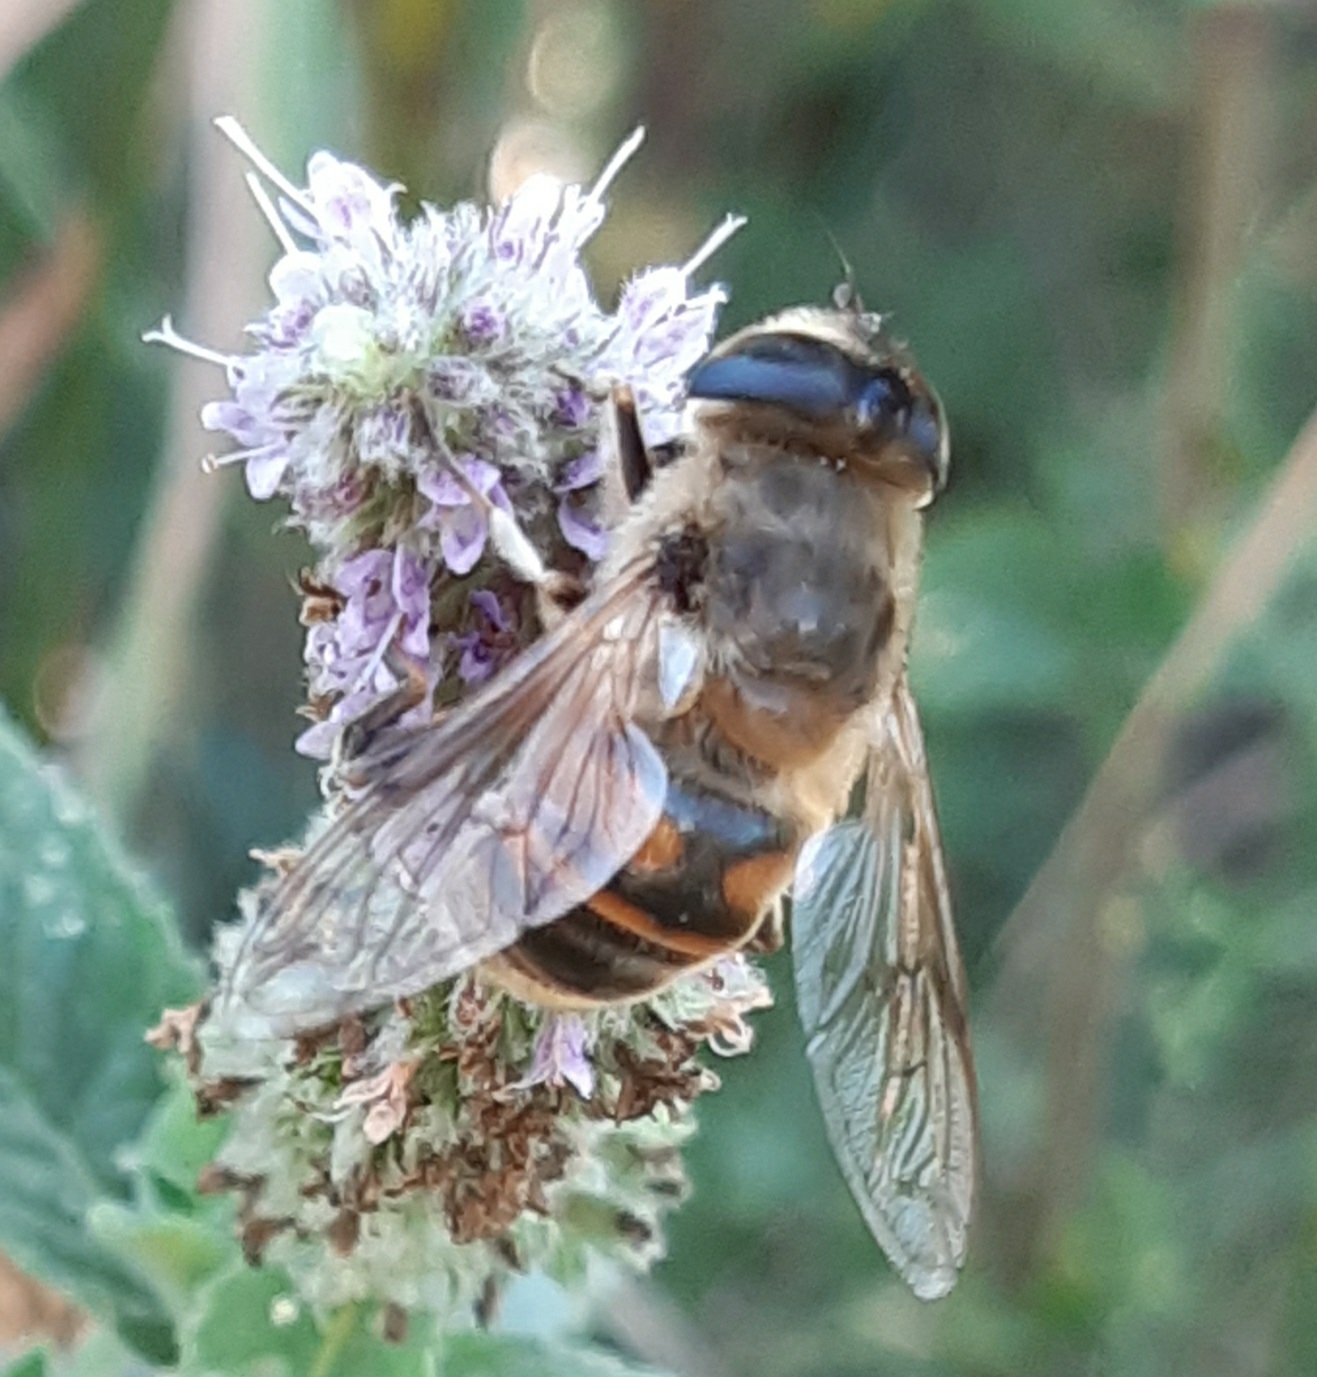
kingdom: Animalia
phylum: Arthropoda
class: Insecta
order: Diptera
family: Syrphidae
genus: Eristalis
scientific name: Eristalis tenax
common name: Drone fly
